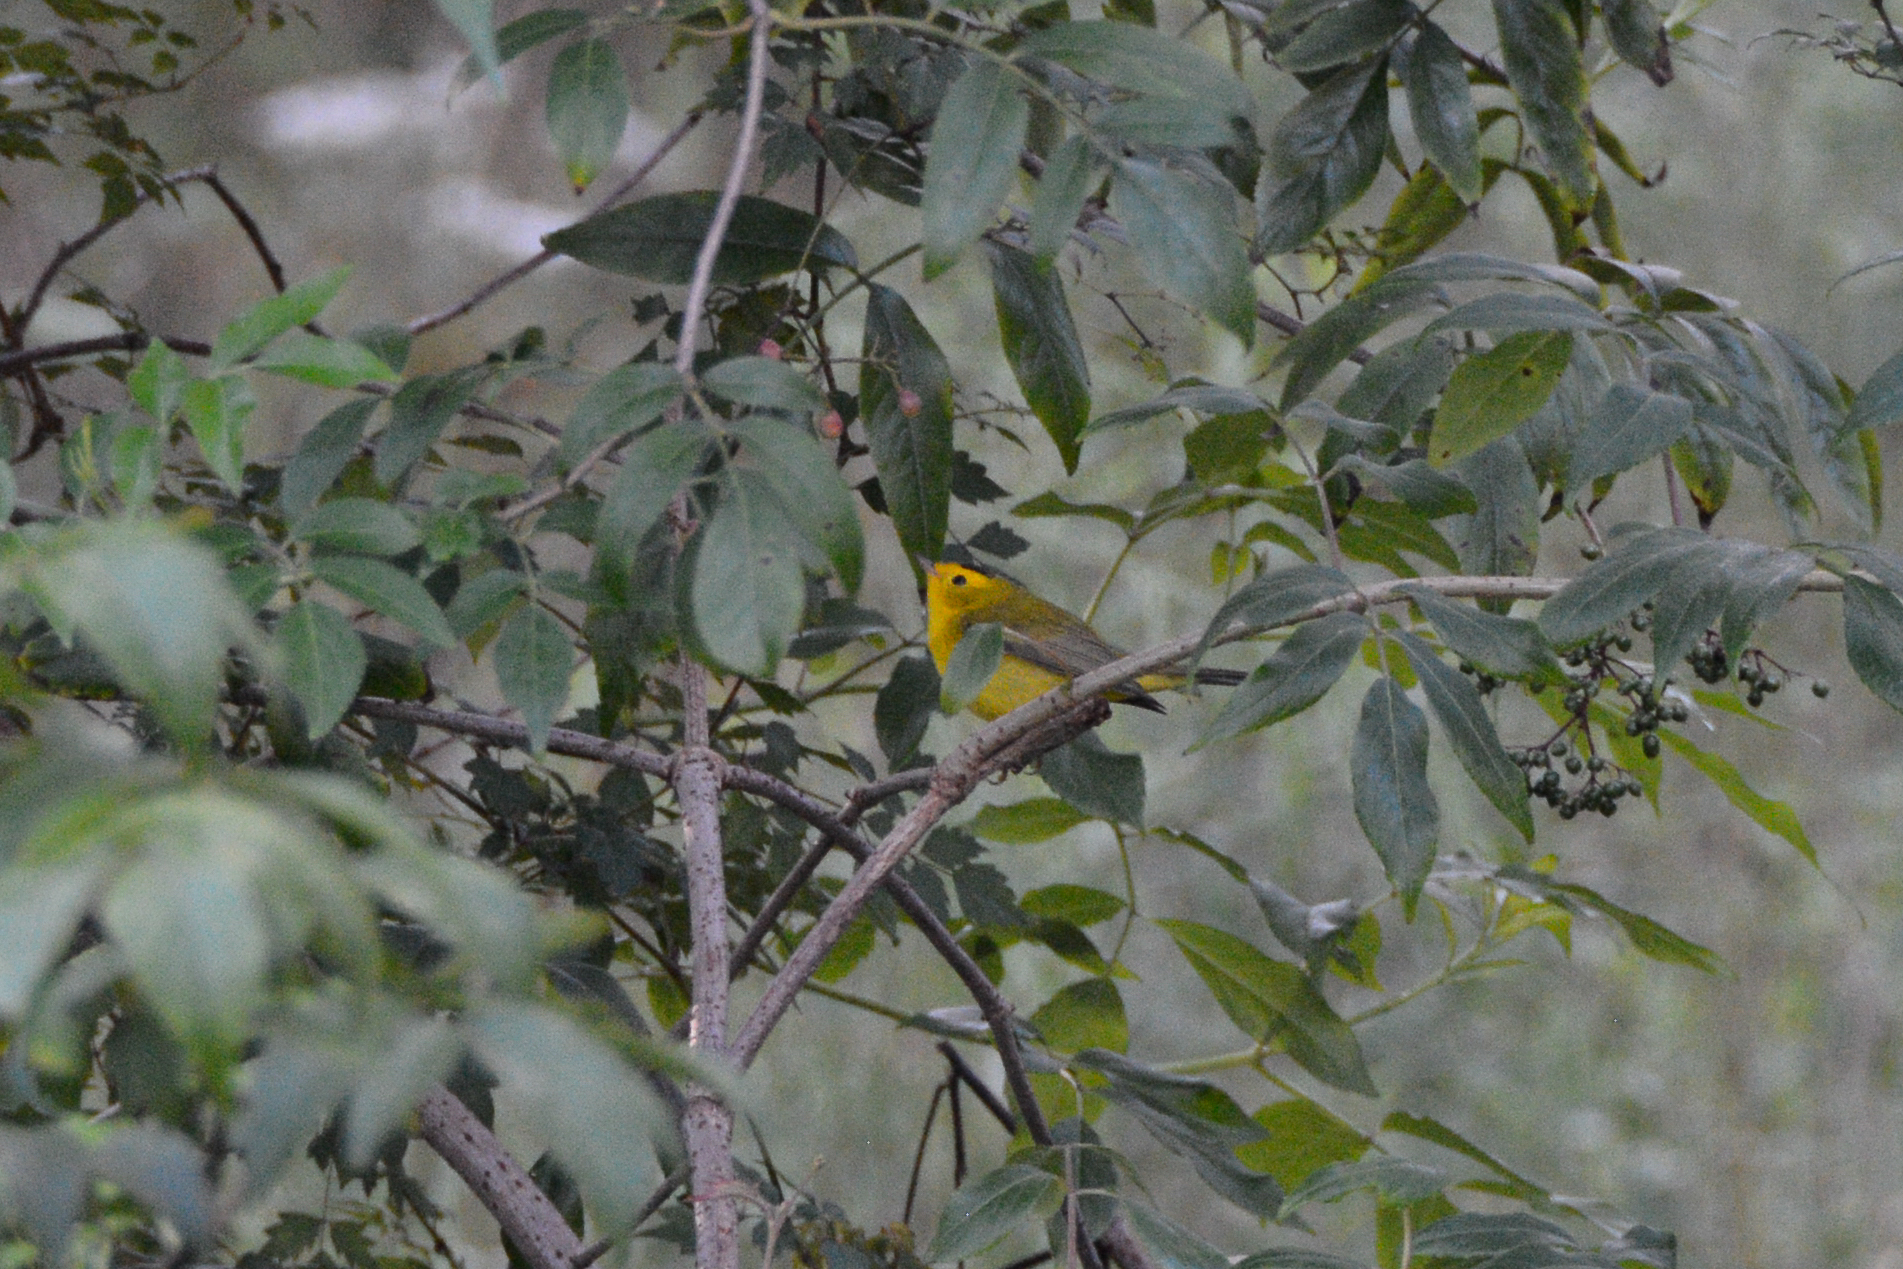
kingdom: Animalia
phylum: Chordata
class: Aves
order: Passeriformes
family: Parulidae
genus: Cardellina
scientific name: Cardellina pusilla
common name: Wilson's warbler
